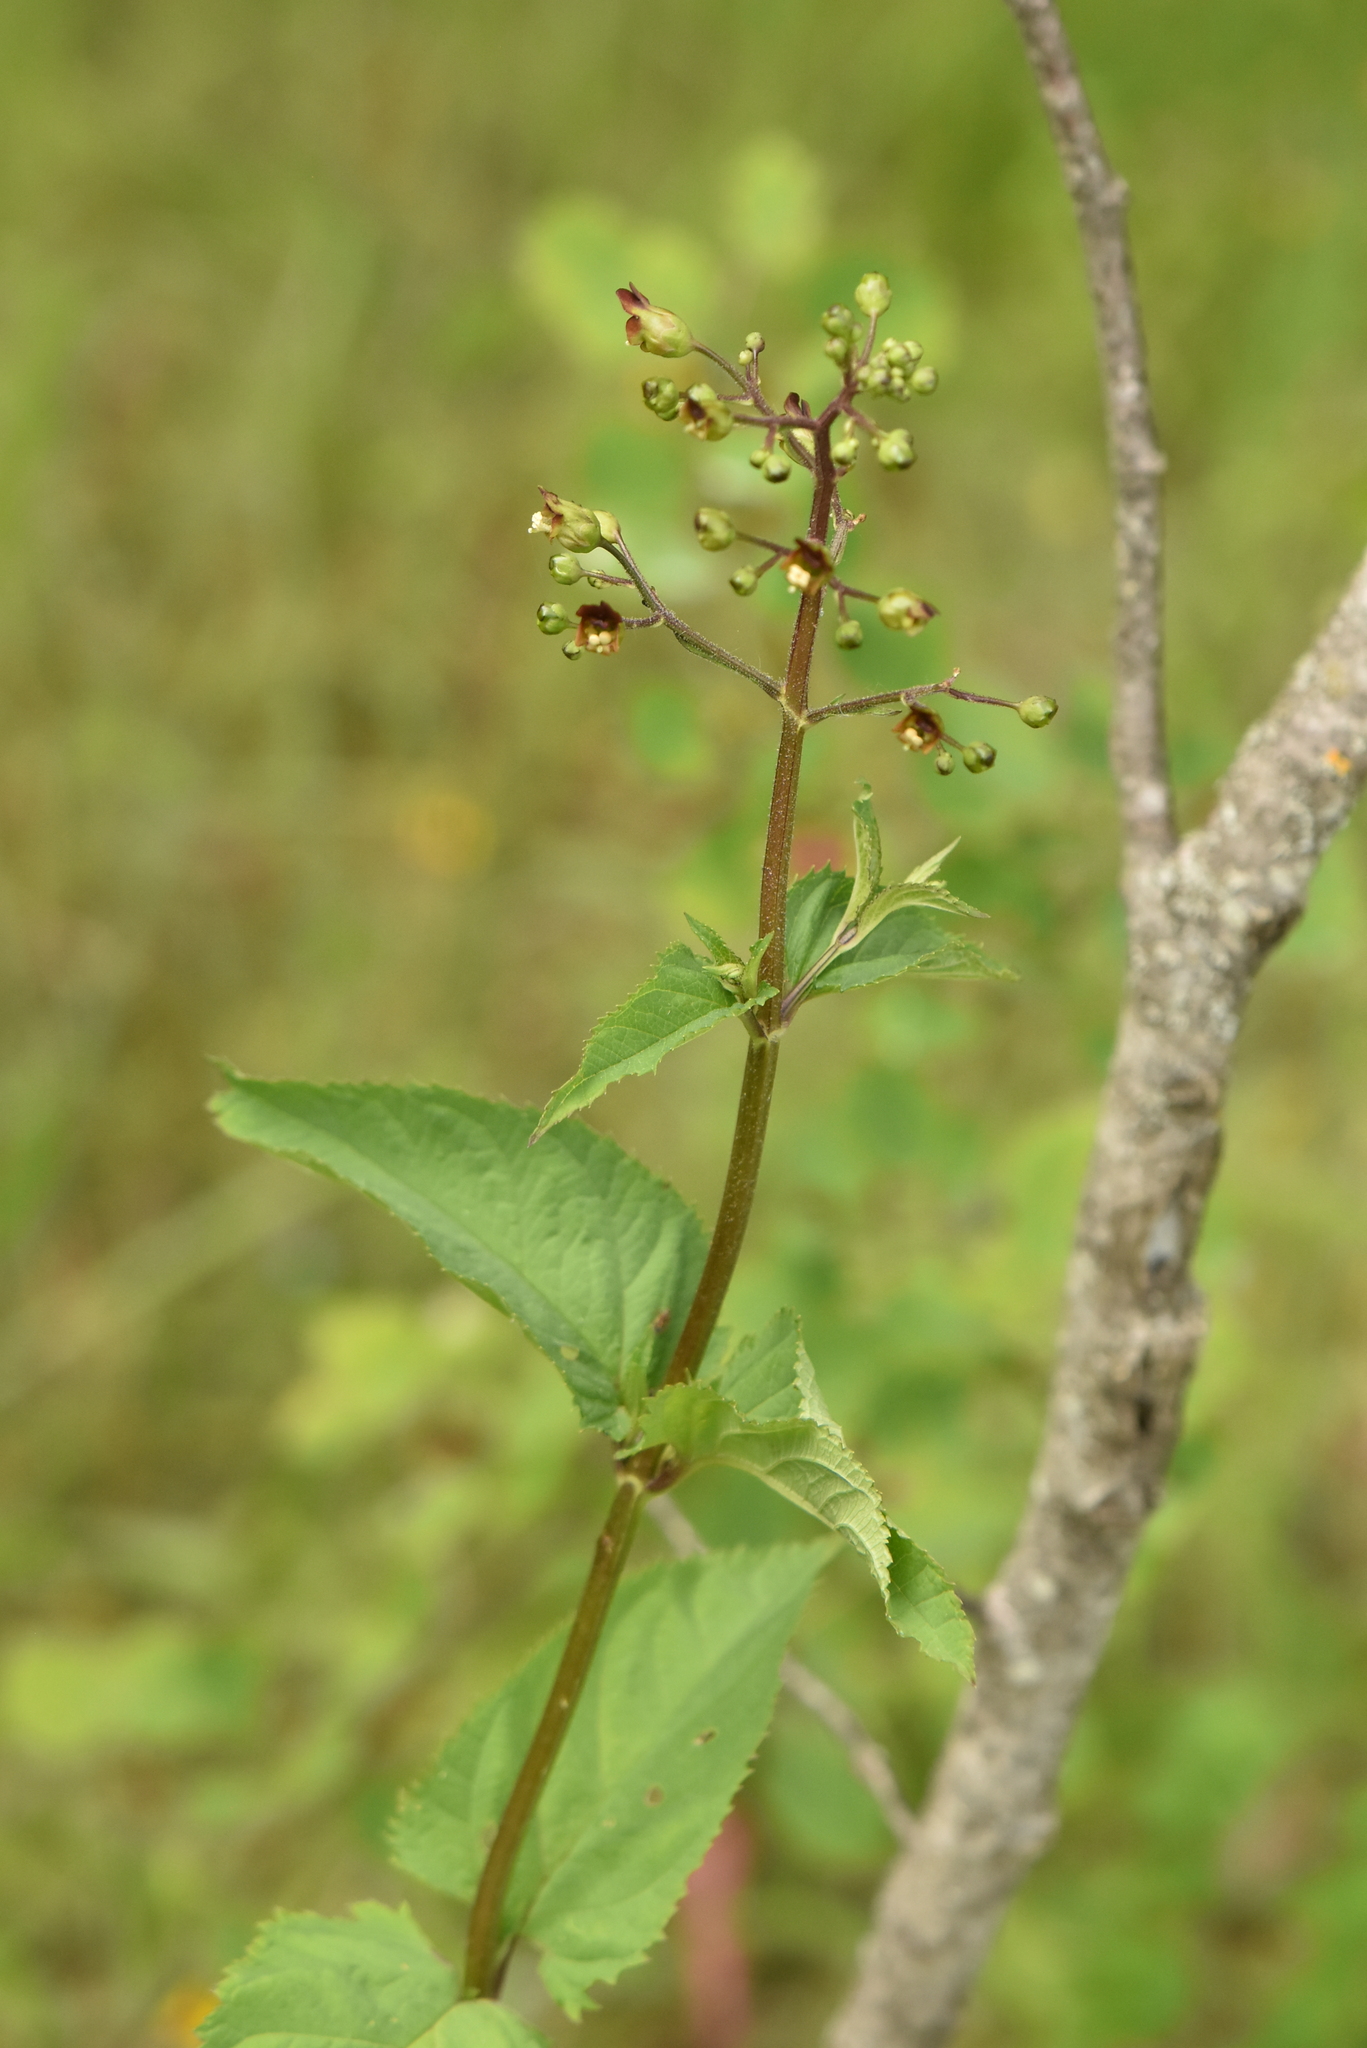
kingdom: Plantae
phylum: Tracheophyta
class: Magnoliopsida
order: Lamiales
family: Scrophulariaceae
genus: Scrophularia
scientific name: Scrophularia nodosa
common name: Common figwort
